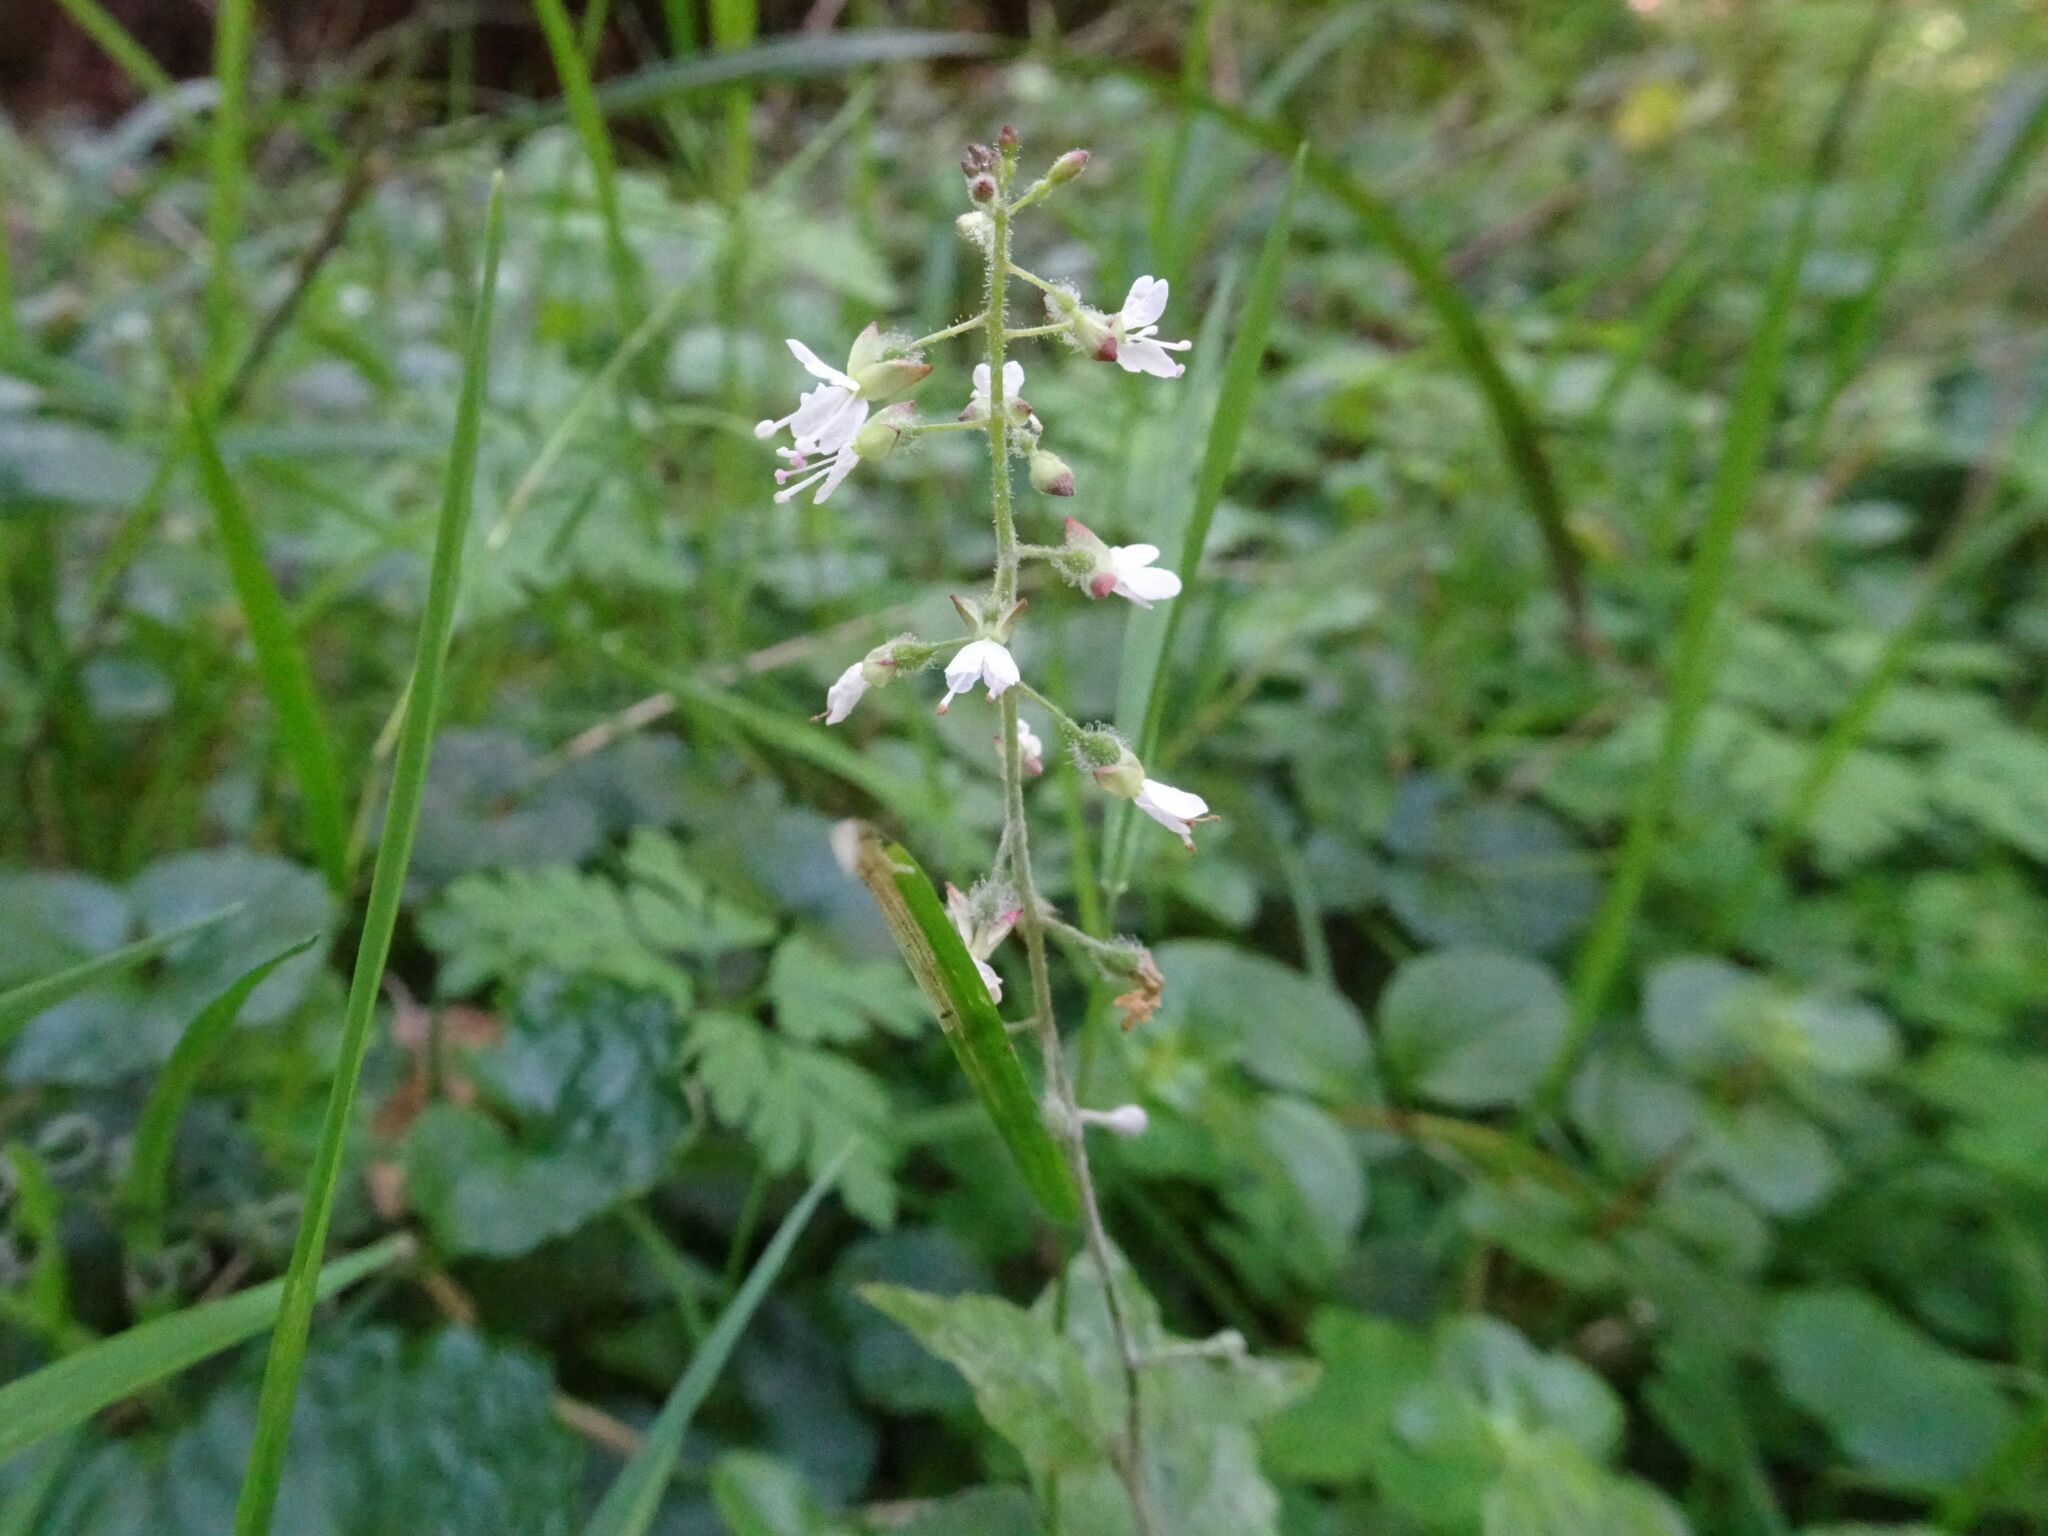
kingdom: Plantae
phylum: Tracheophyta
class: Magnoliopsida
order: Myrtales
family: Onagraceae
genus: Circaea
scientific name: Circaea lutetiana
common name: Enchanter's-nightshade
